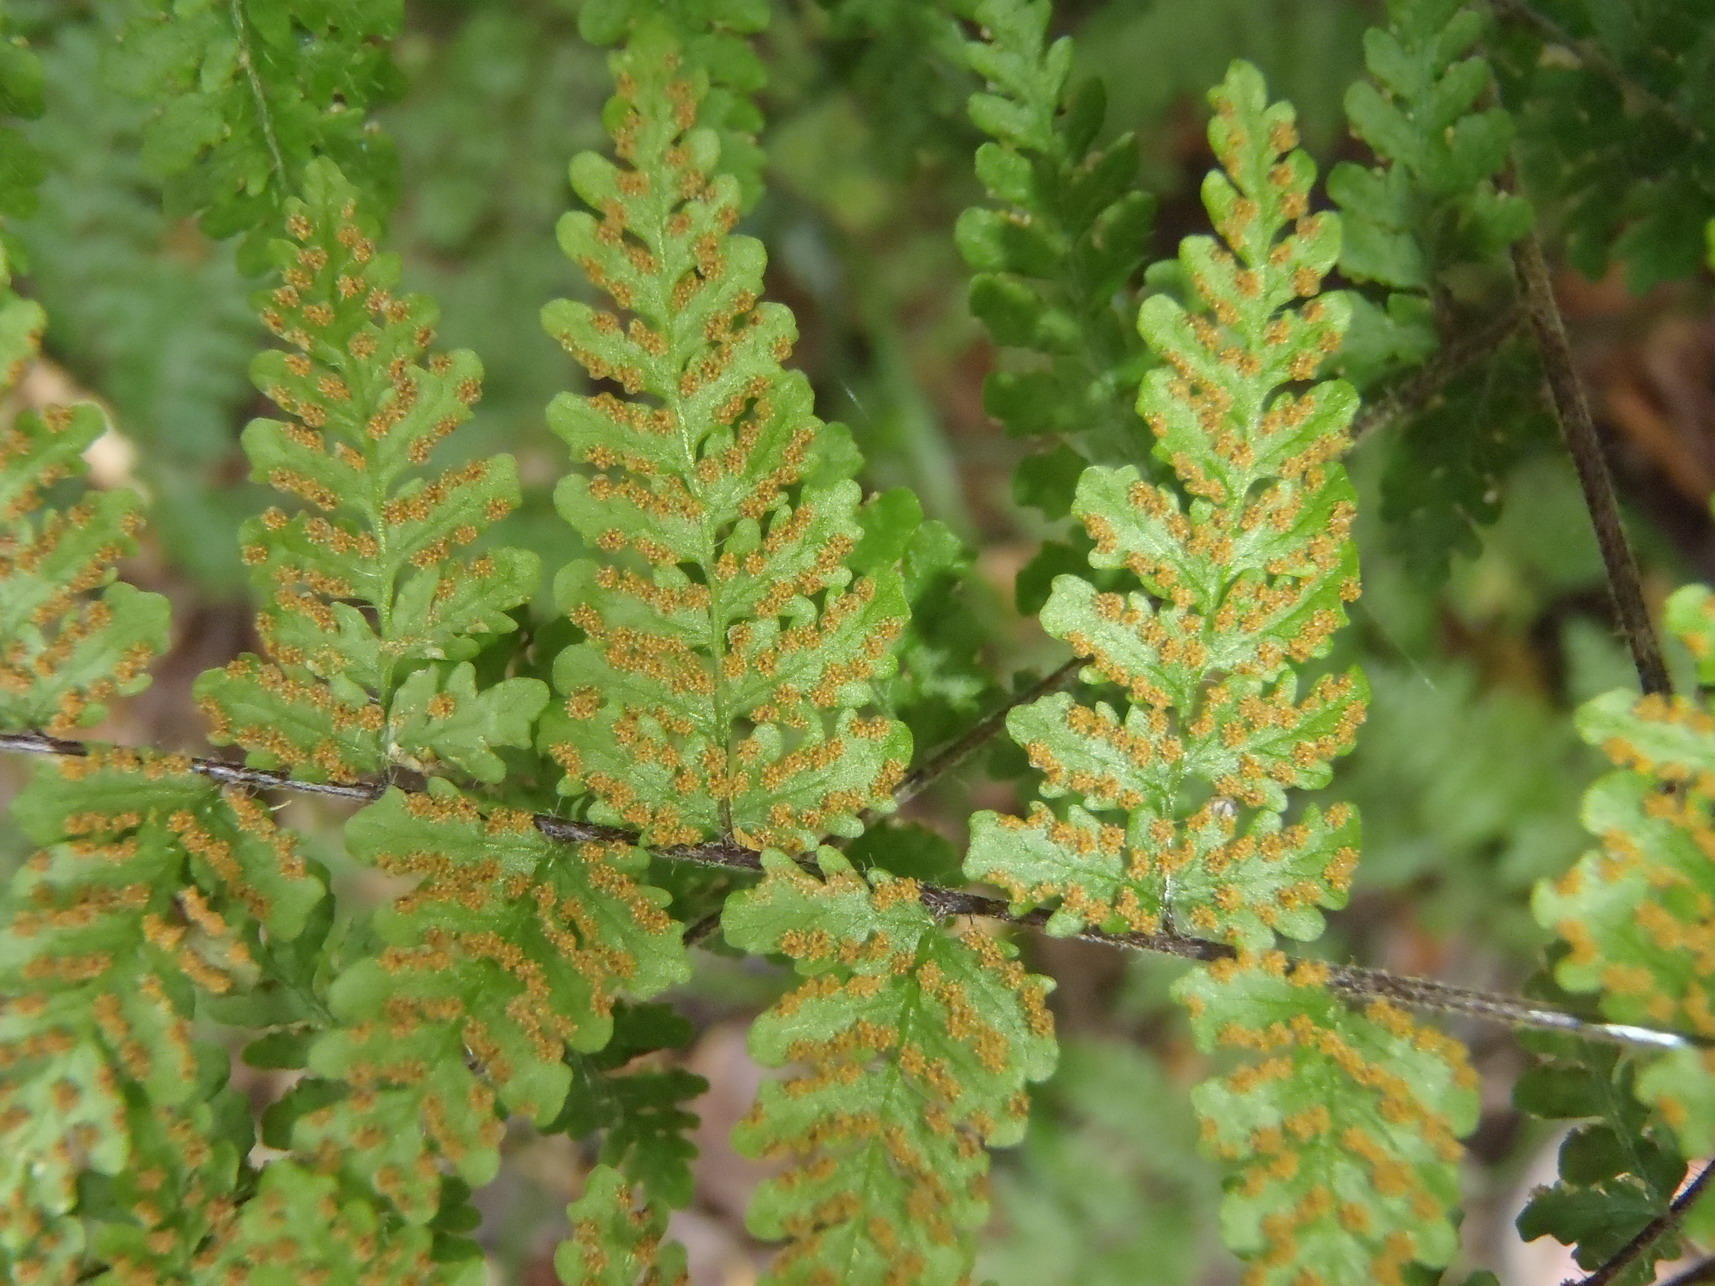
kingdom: Plantae
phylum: Tracheophyta
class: Polypodiopsida
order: Polypodiales
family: Pteridaceae
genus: Cheilanthes
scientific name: Cheilanthes bergiana
